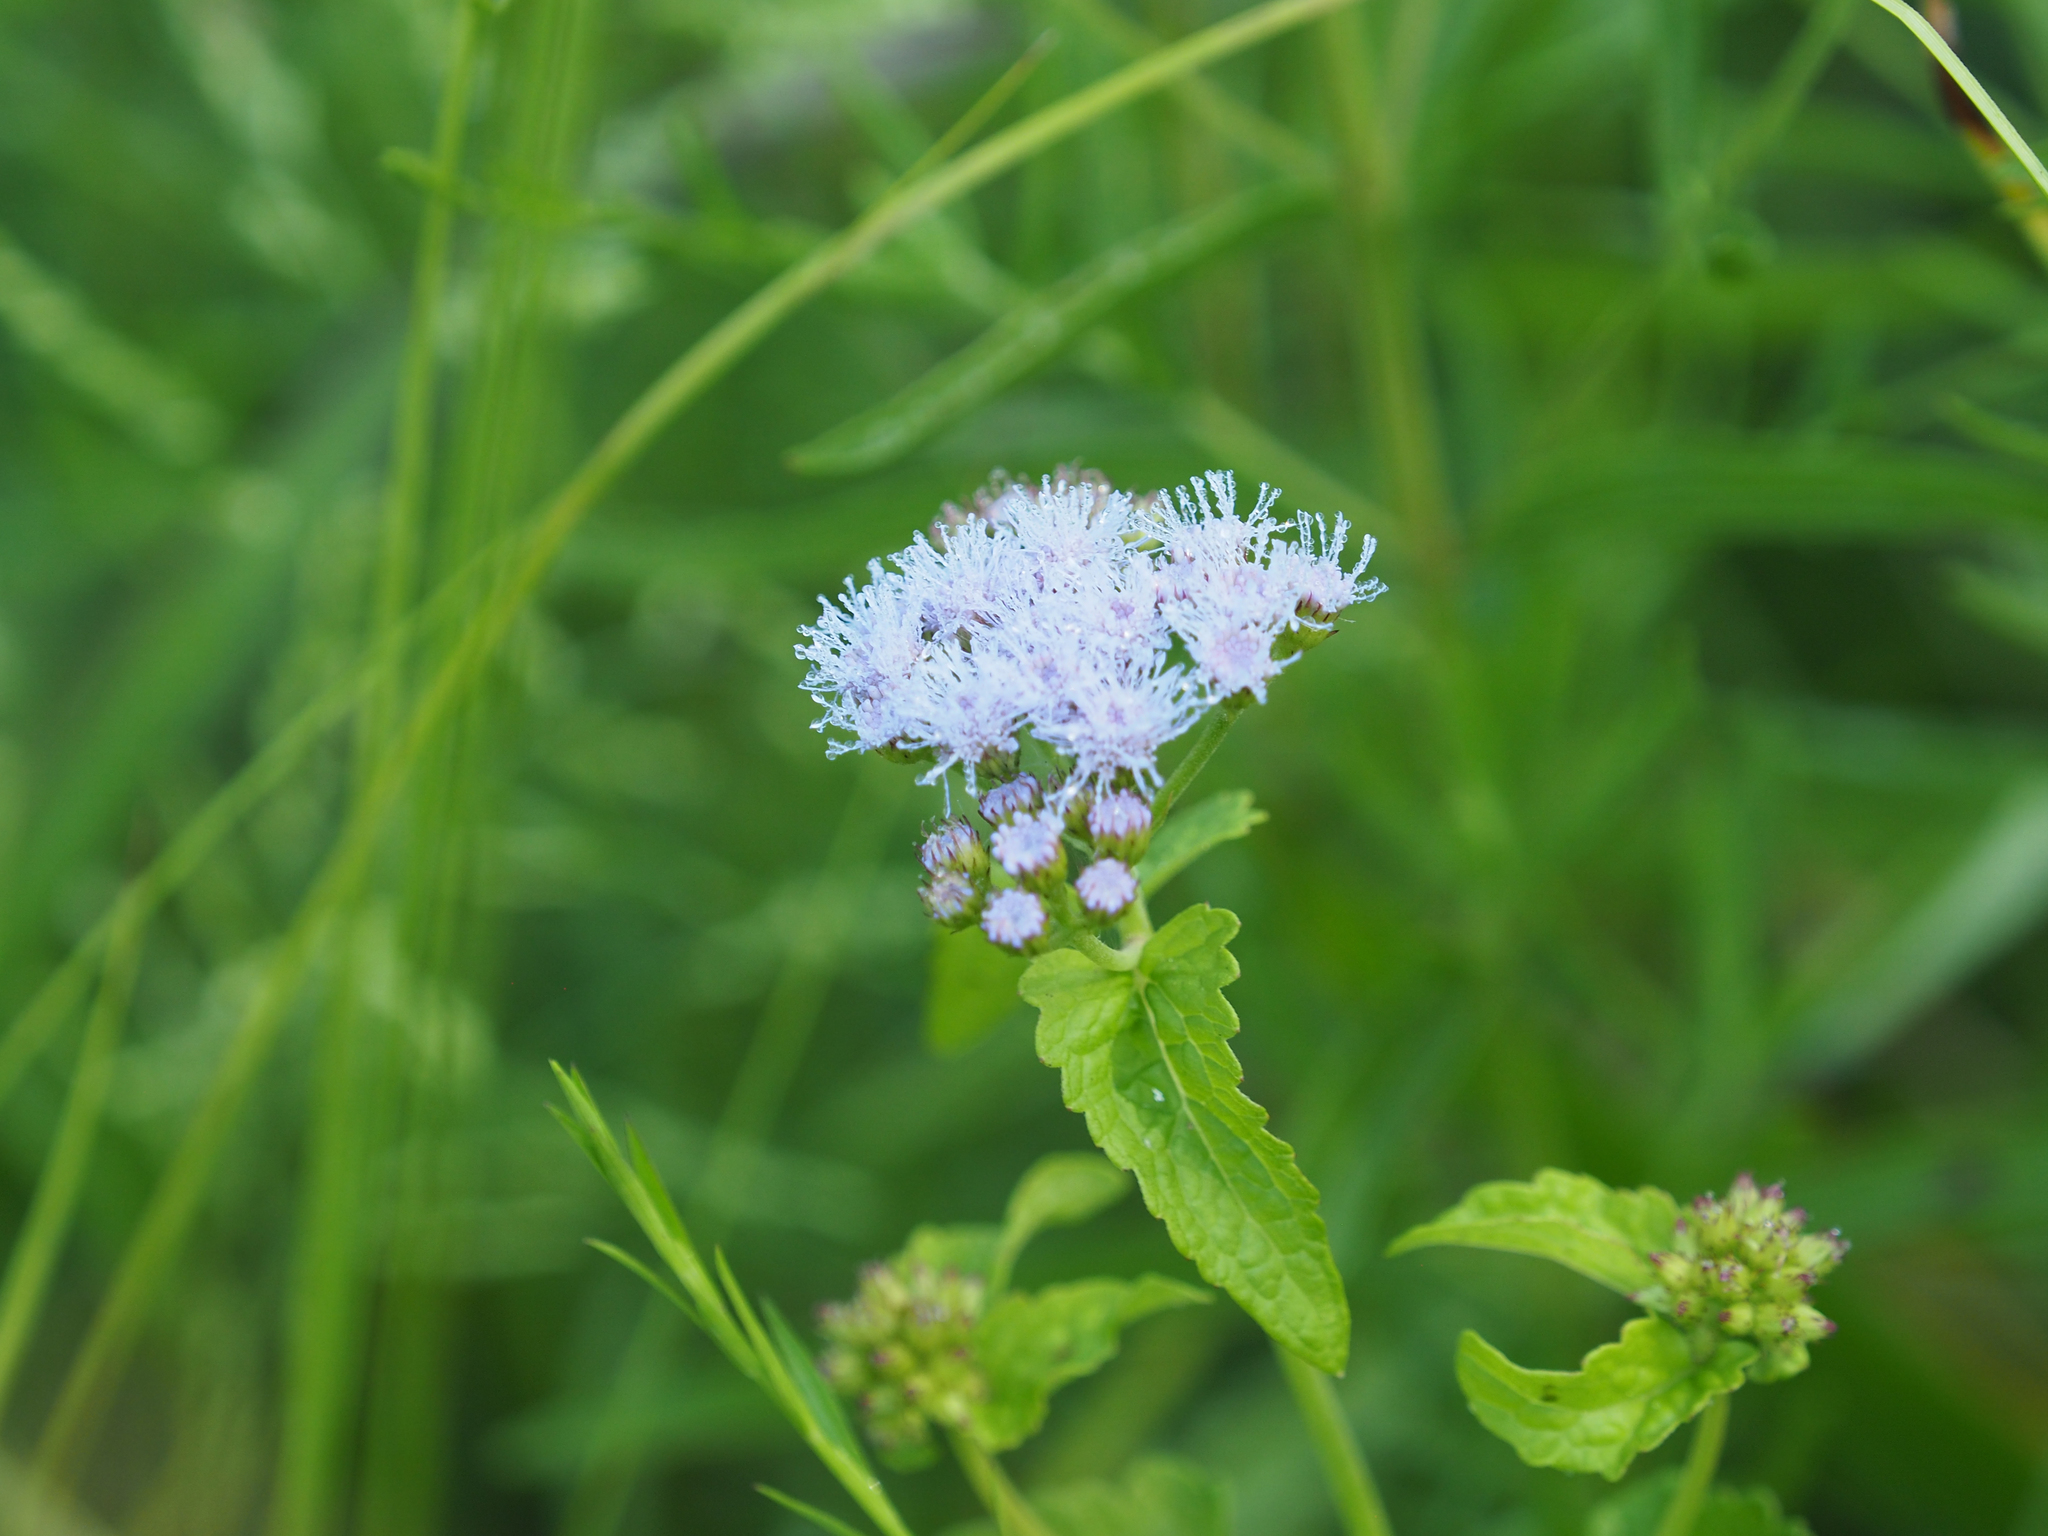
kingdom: Plantae
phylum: Tracheophyta
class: Magnoliopsida
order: Asterales
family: Asteraceae
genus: Conoclinium
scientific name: Conoclinium coelestinum
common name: Blue mistflower
